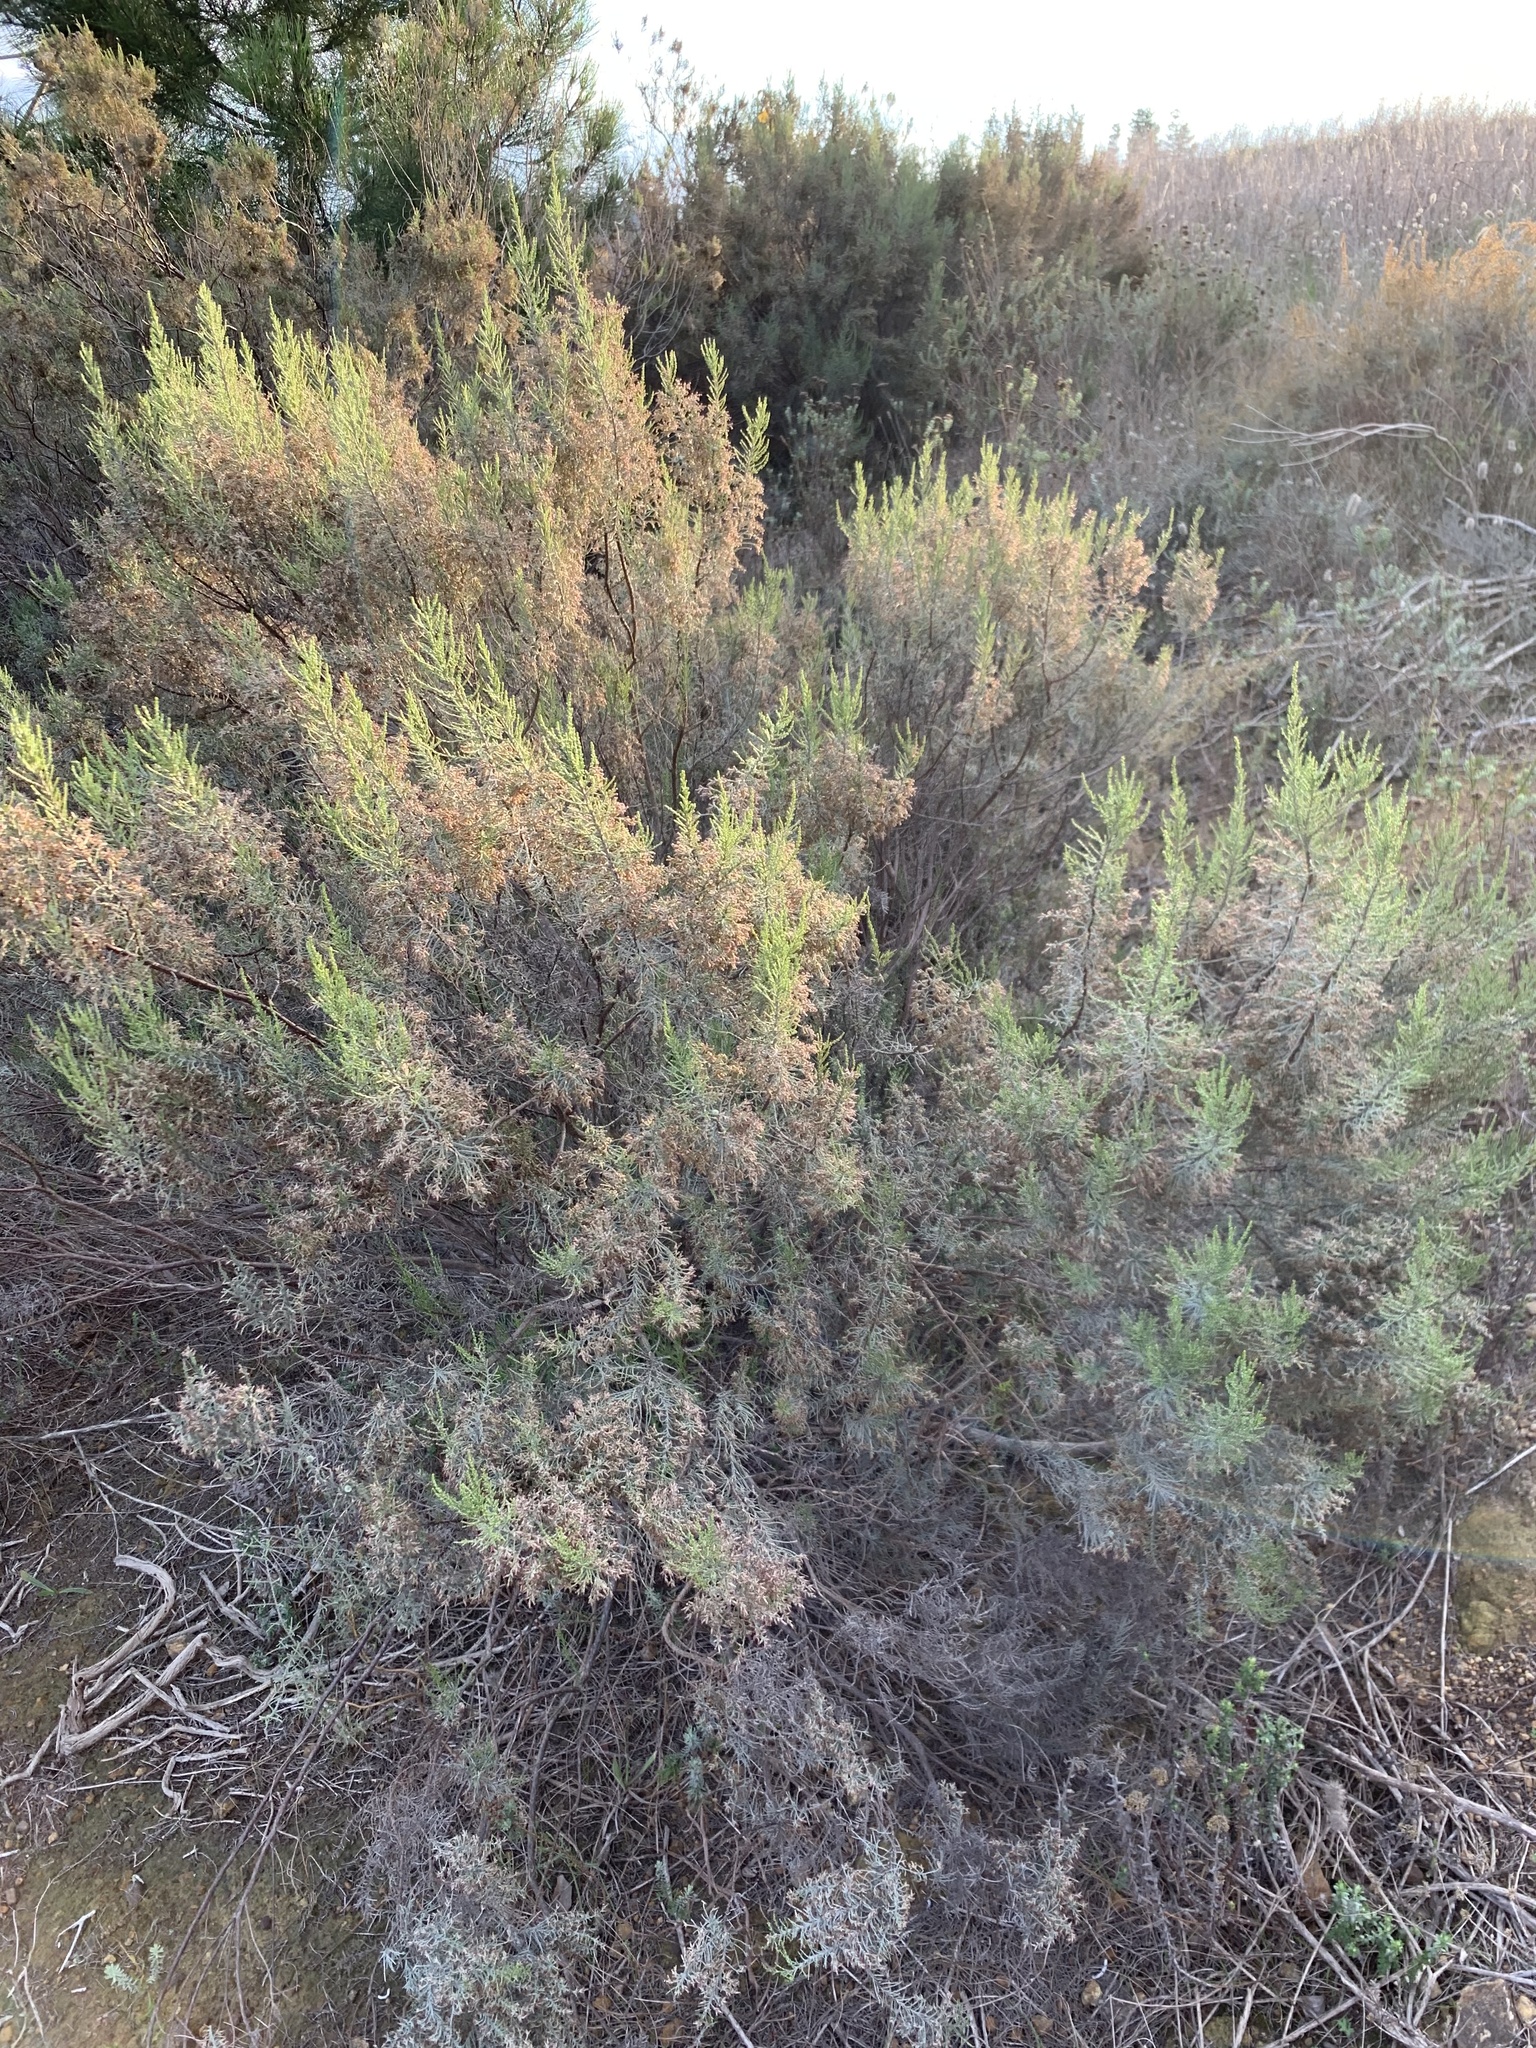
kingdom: Plantae
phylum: Tracheophyta
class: Magnoliopsida
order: Asterales
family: Asteraceae
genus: Dicerothamnus
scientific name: Dicerothamnus rhinocerotis
